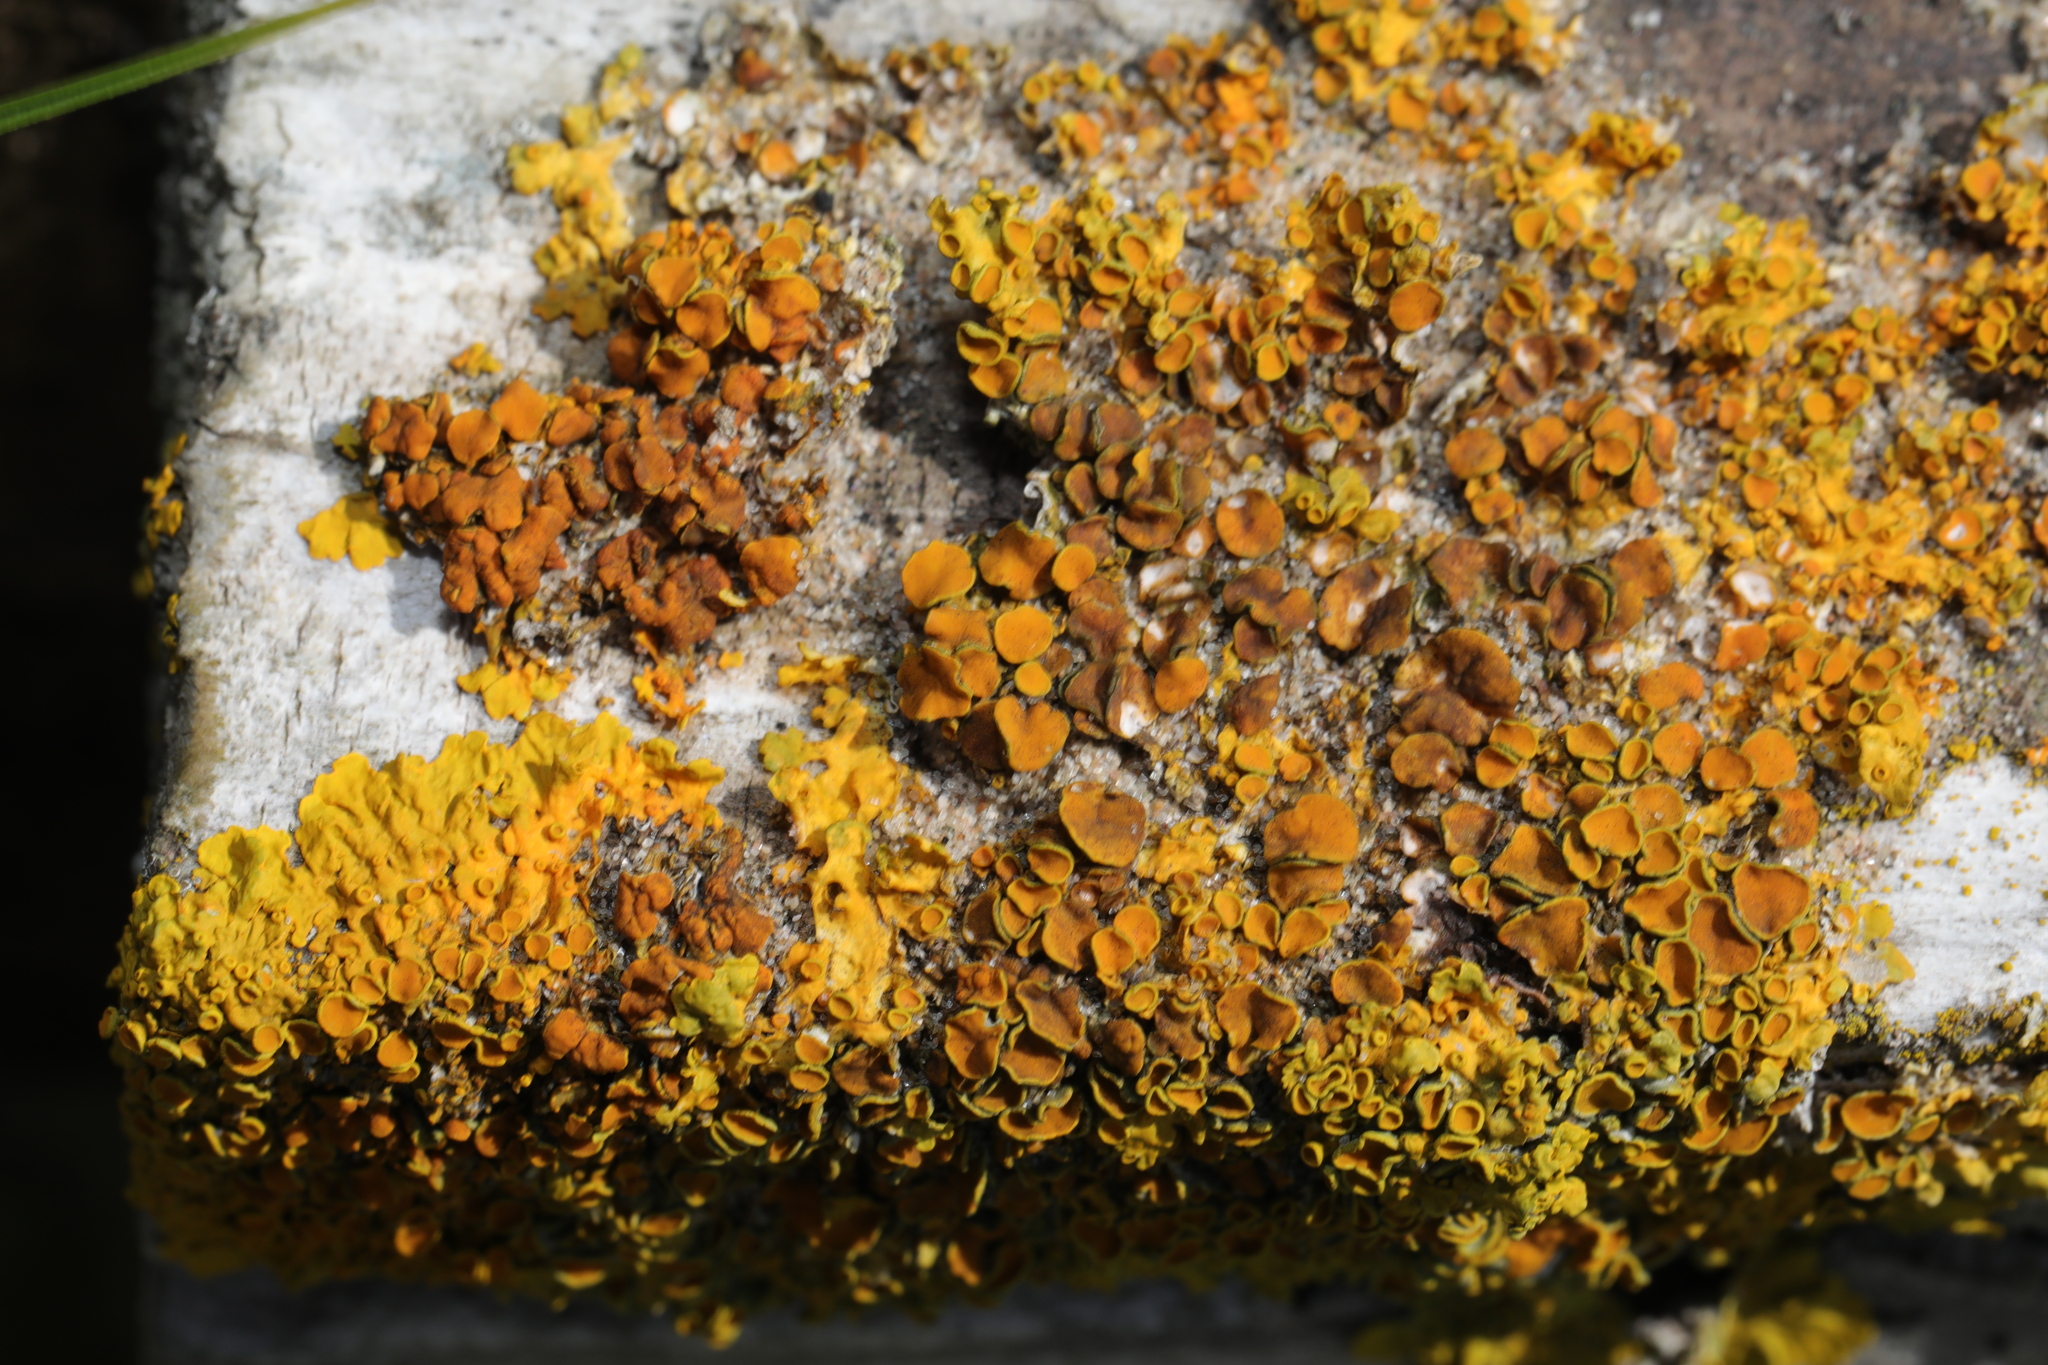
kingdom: Fungi
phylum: Ascomycota
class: Lecanoromycetes
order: Teloschistales
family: Teloschistaceae
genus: Xanthoria
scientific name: Xanthoria parietina
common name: Common orange lichen
